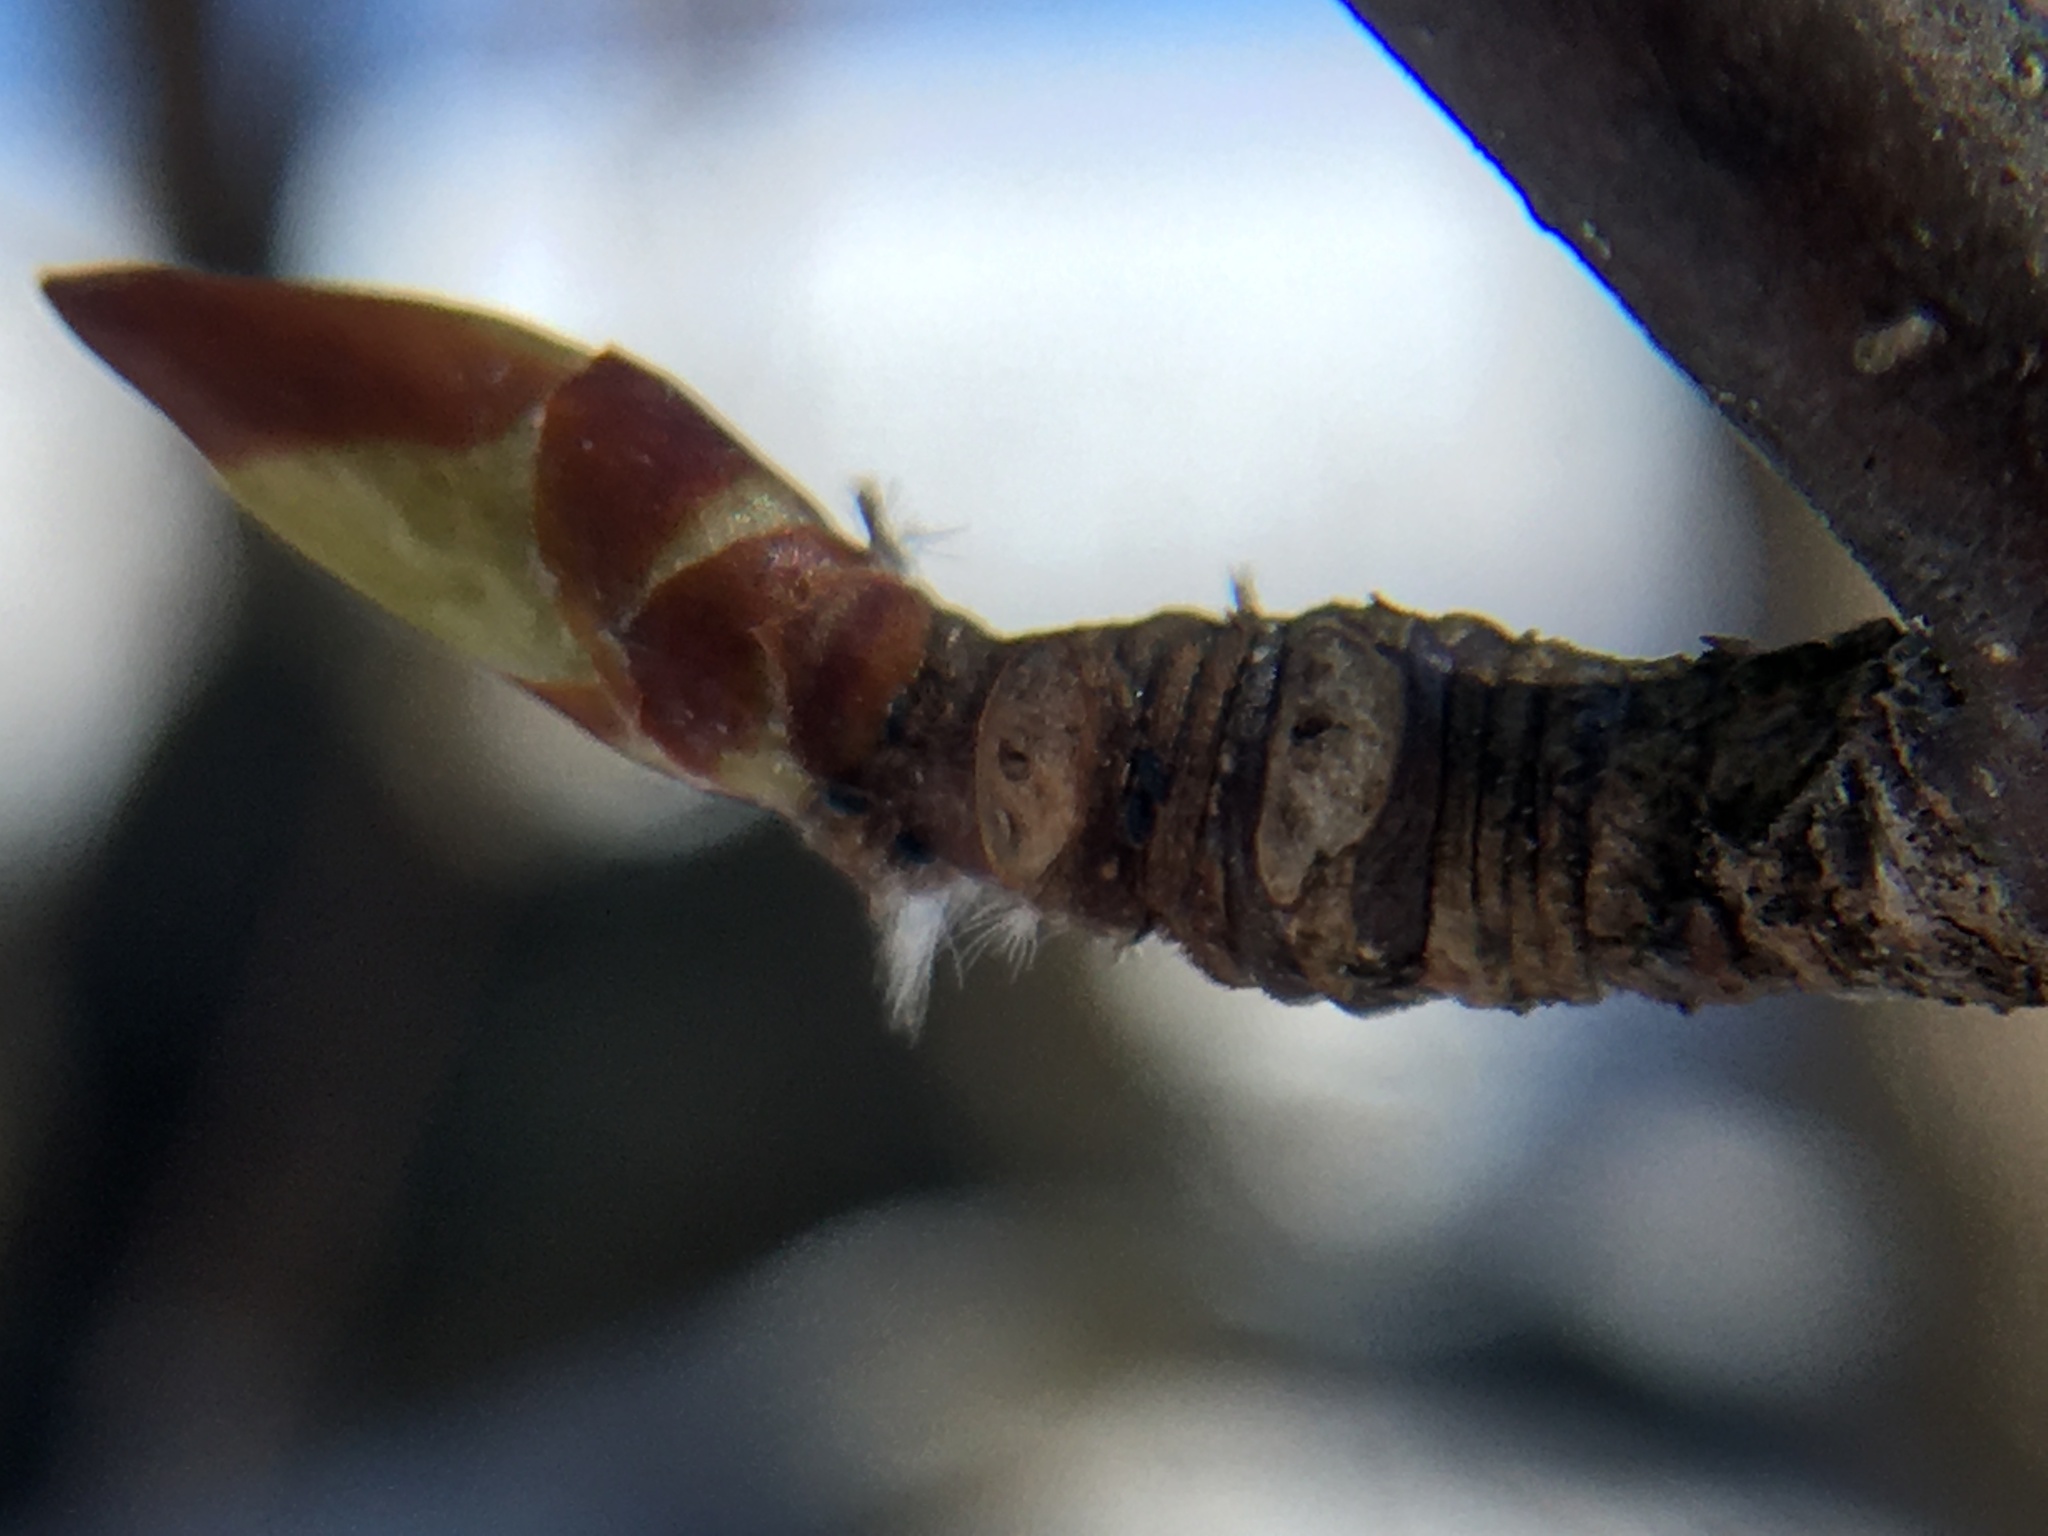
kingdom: Plantae
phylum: Tracheophyta
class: Magnoliopsida
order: Fagales
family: Betulaceae
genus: Betula
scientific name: Betula lenta
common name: Black birch
